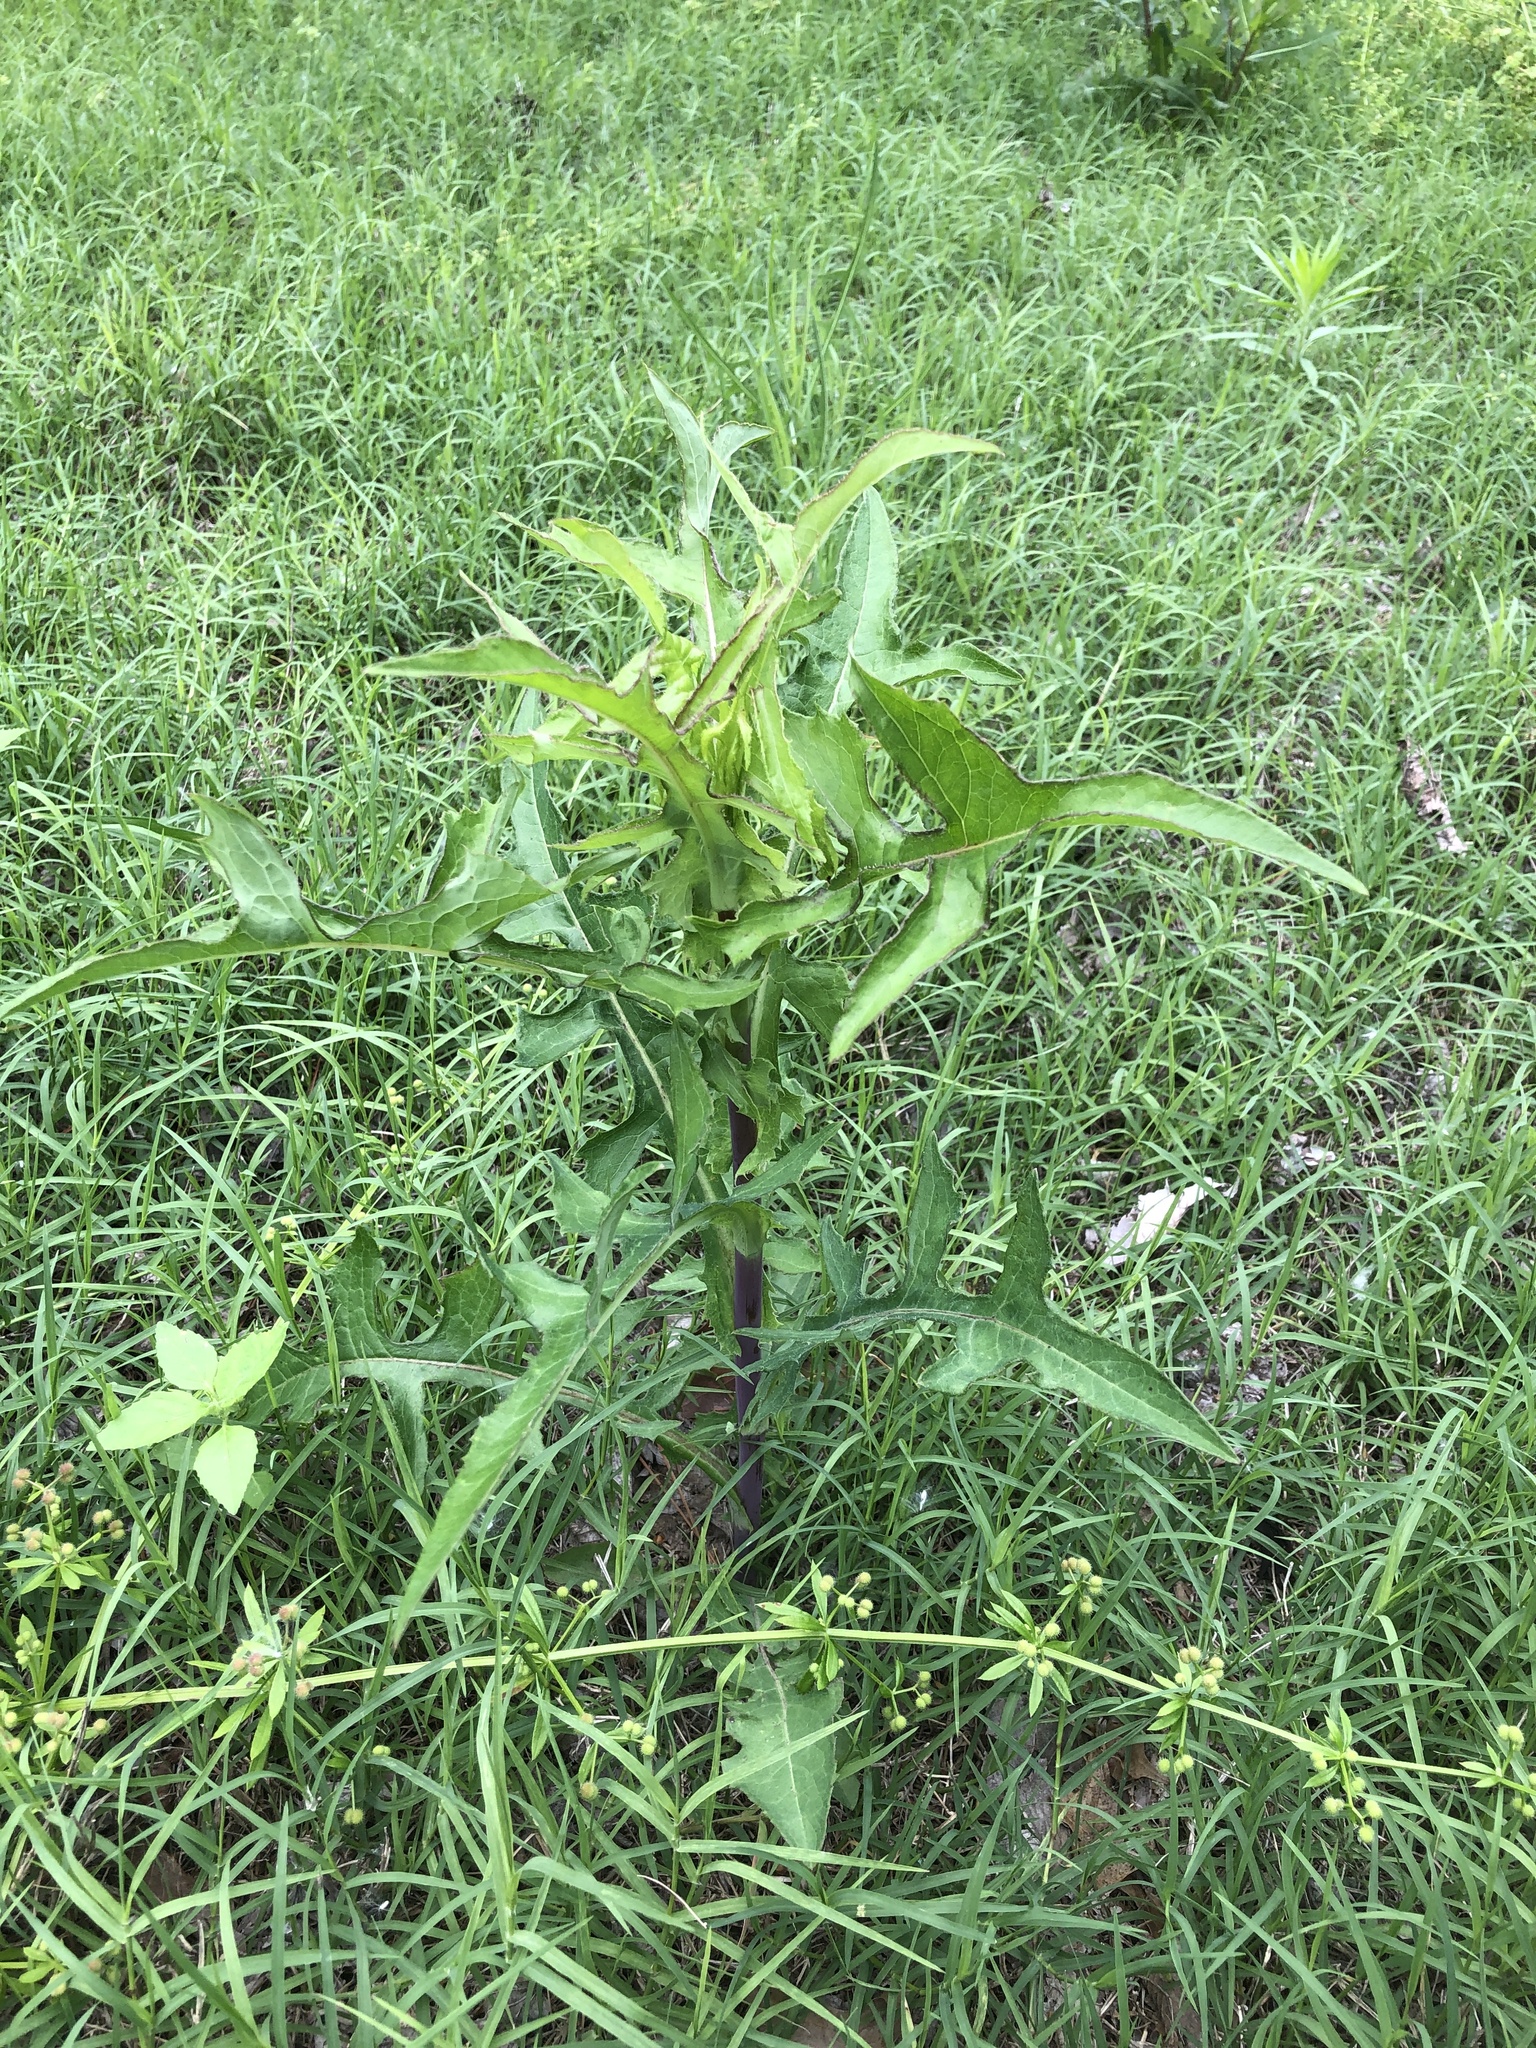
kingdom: Plantae
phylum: Tracheophyta
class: Magnoliopsida
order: Asterales
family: Asteraceae
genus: Lactuca
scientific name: Lactuca canadensis
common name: Canada lettuce
